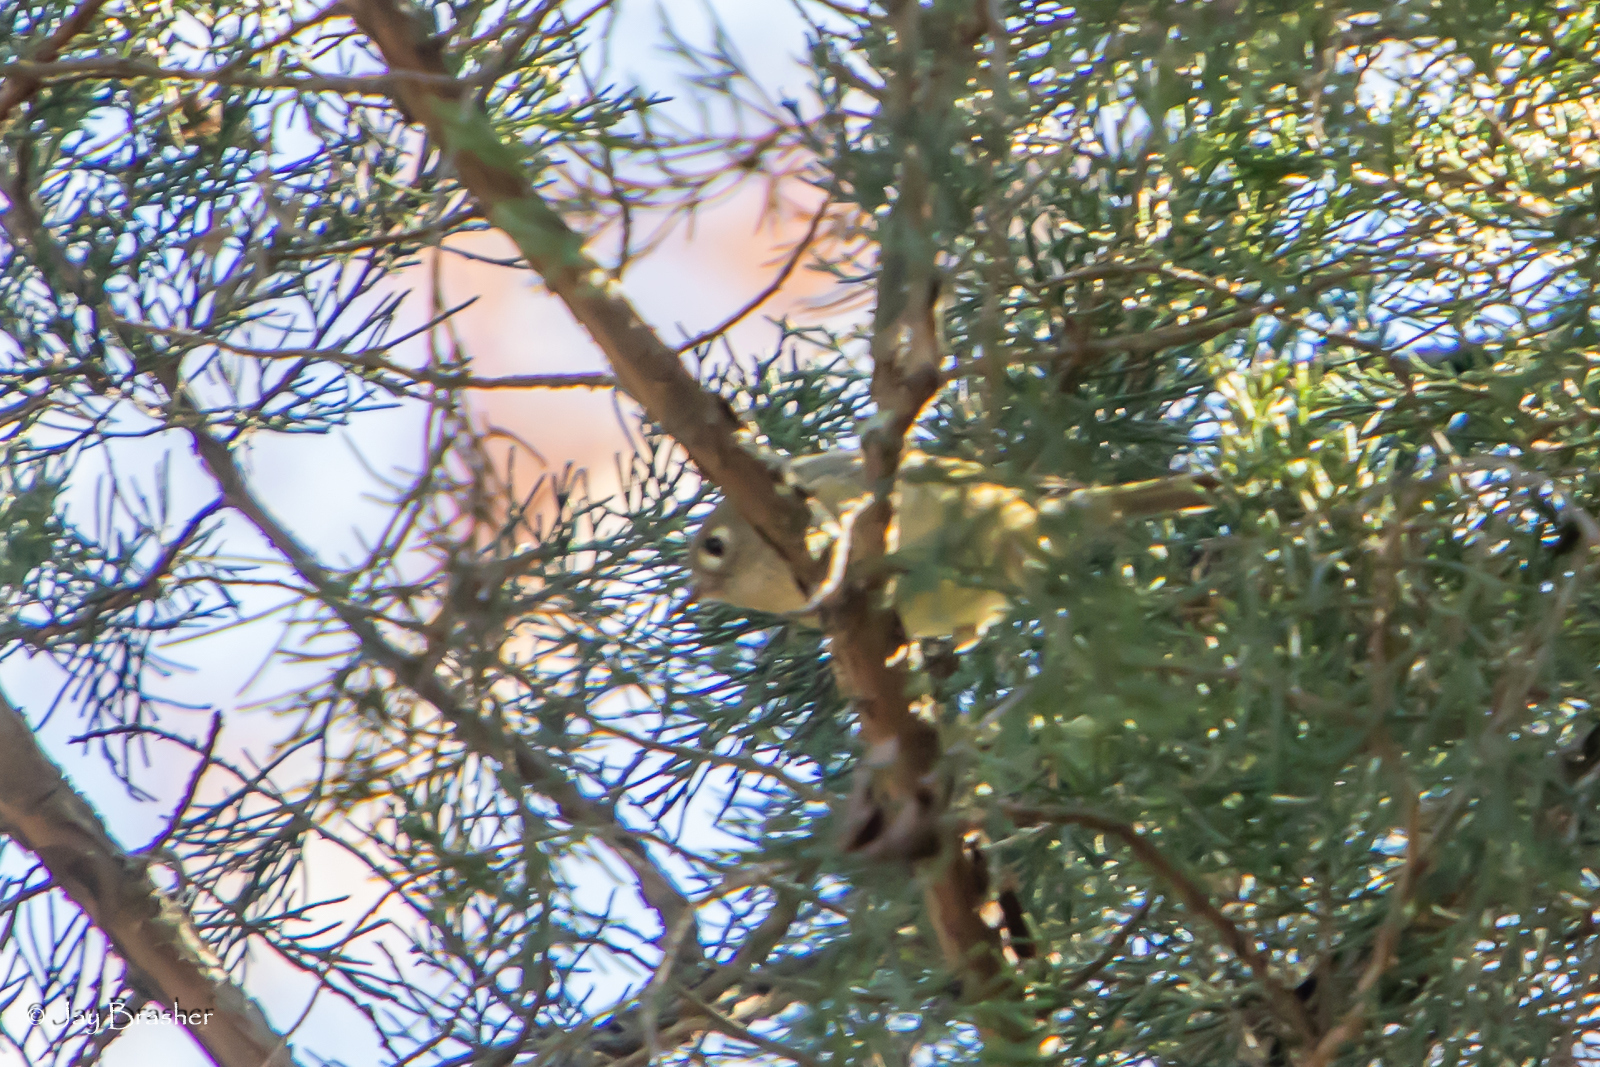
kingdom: Animalia
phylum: Chordata
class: Aves
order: Passeriformes
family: Regulidae
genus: Regulus
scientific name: Regulus calendula
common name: Ruby-crowned kinglet
